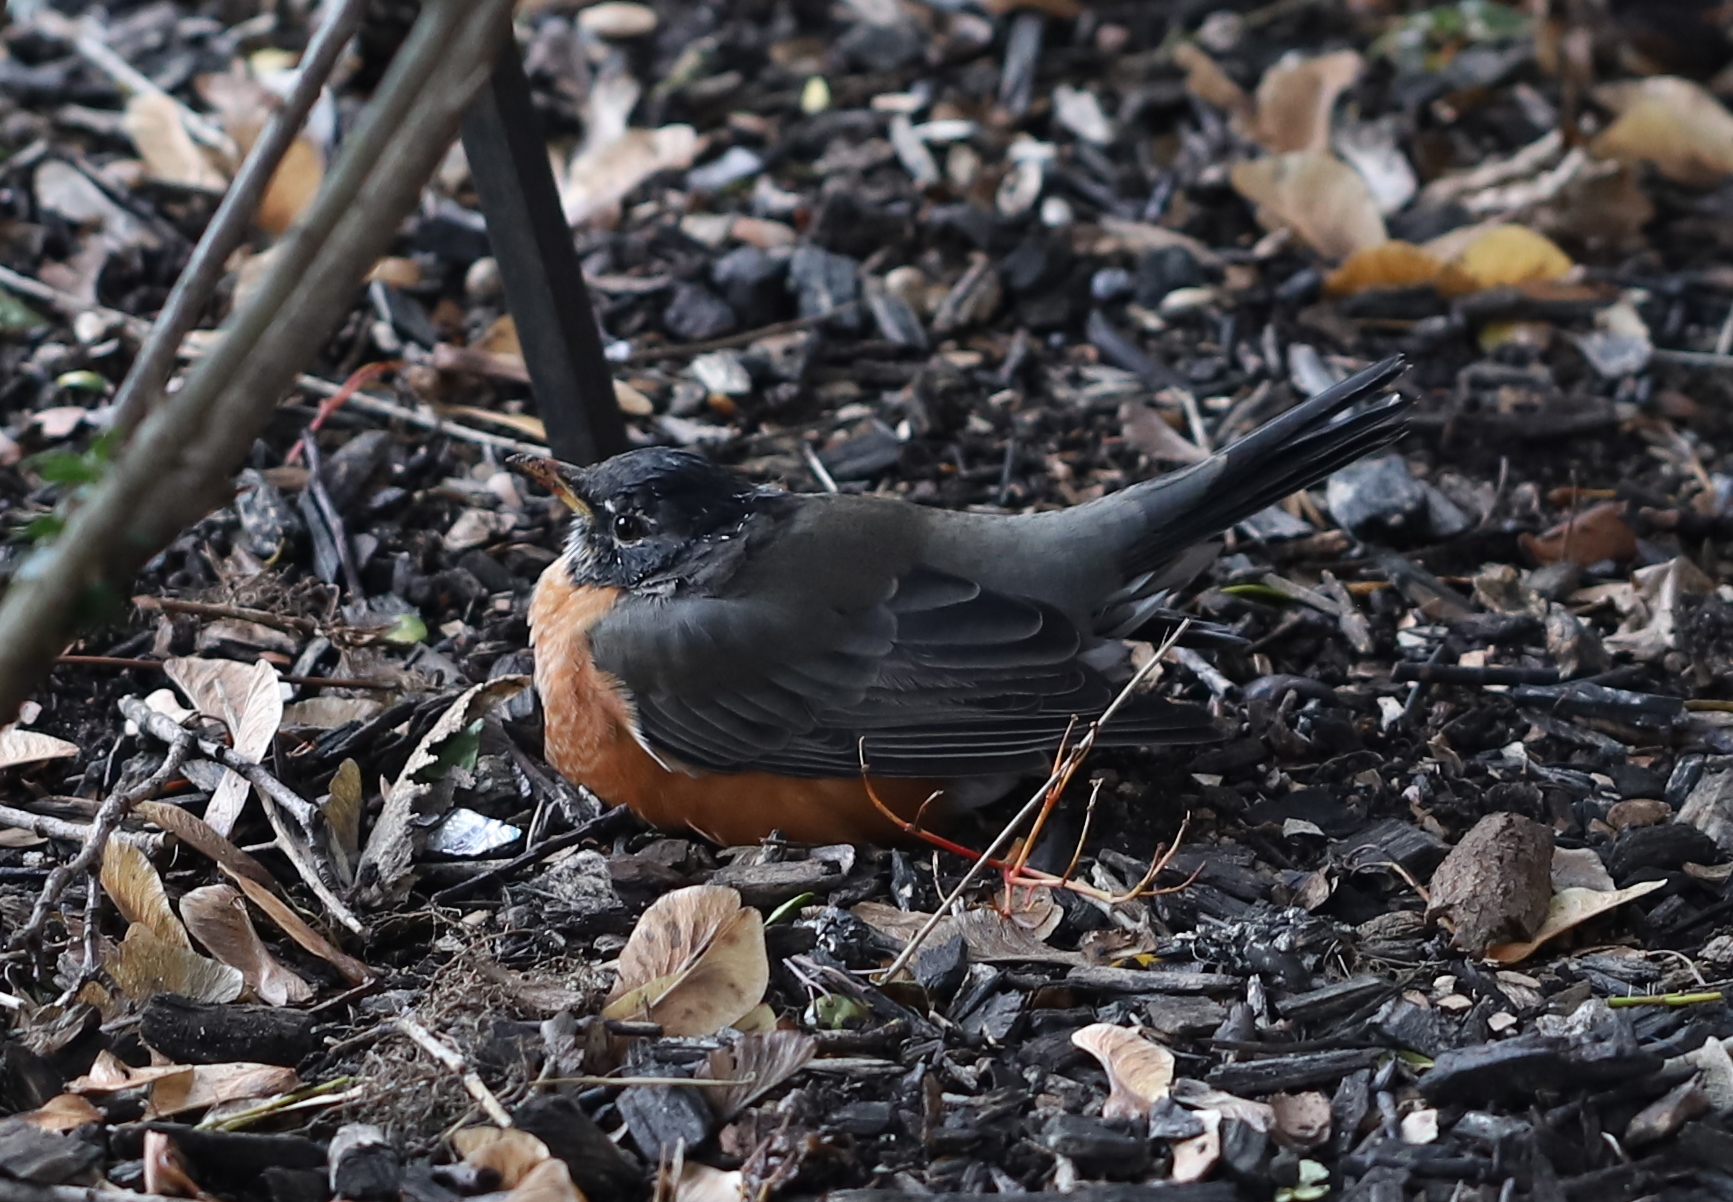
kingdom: Animalia
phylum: Chordata
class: Aves
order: Passeriformes
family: Turdidae
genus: Turdus
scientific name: Turdus migratorius
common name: American robin
